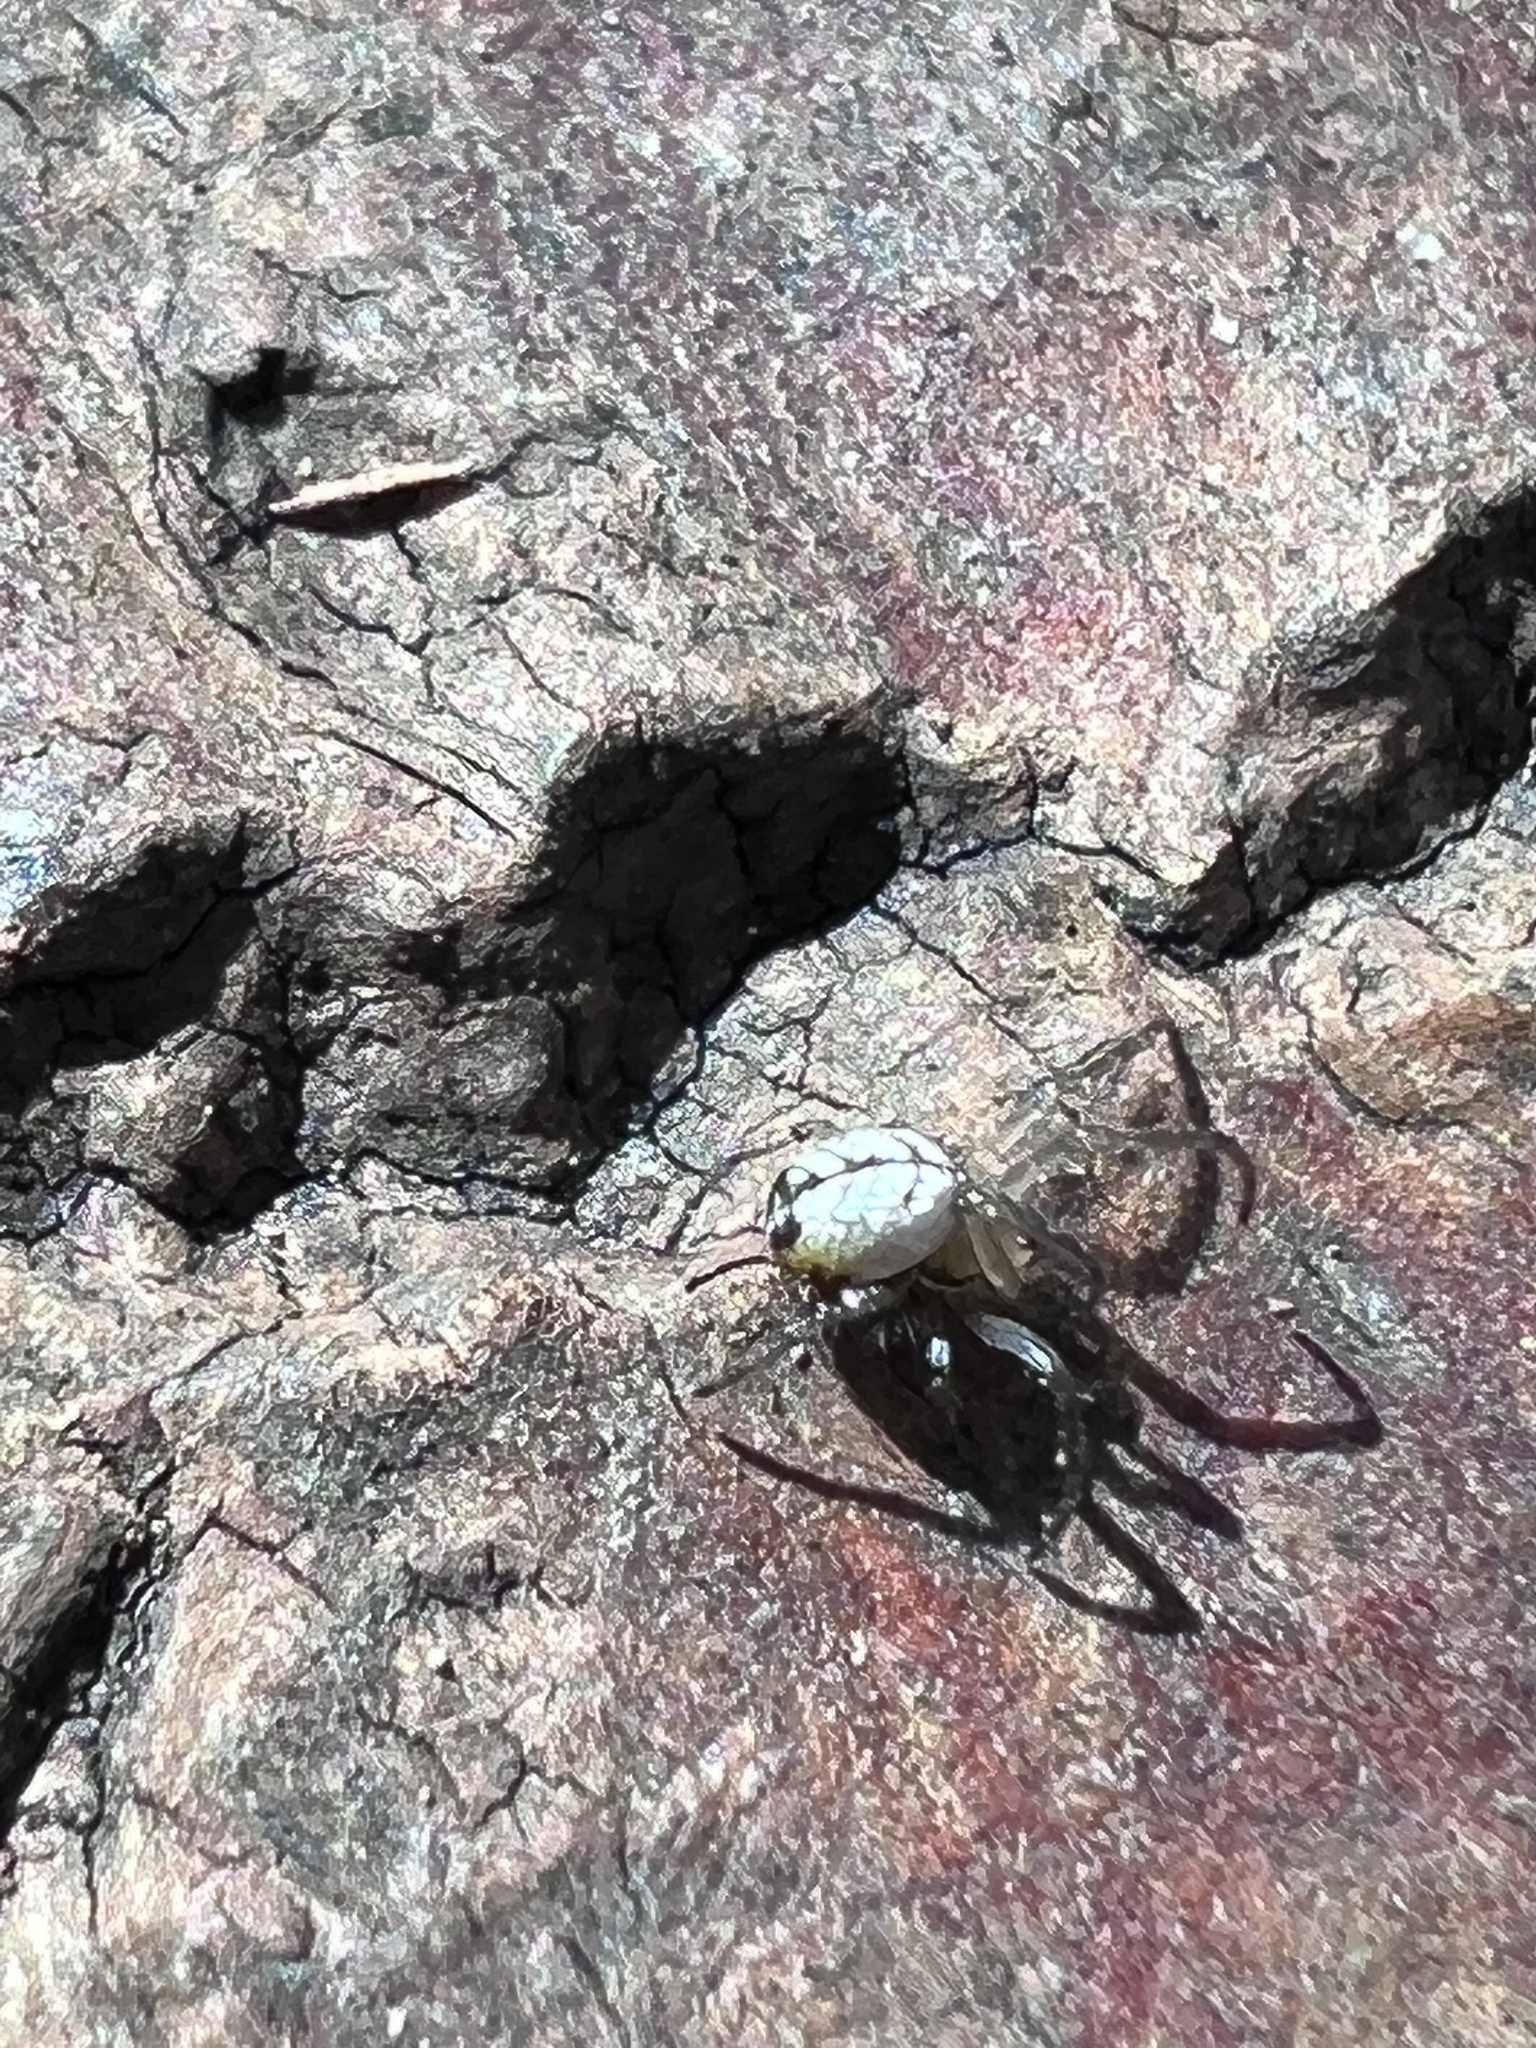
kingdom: Animalia
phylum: Arthropoda
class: Arachnida
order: Araneae
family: Tetragnathidae
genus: Leucauge
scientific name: Leucauge venusta
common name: Longjawed orb weavers
